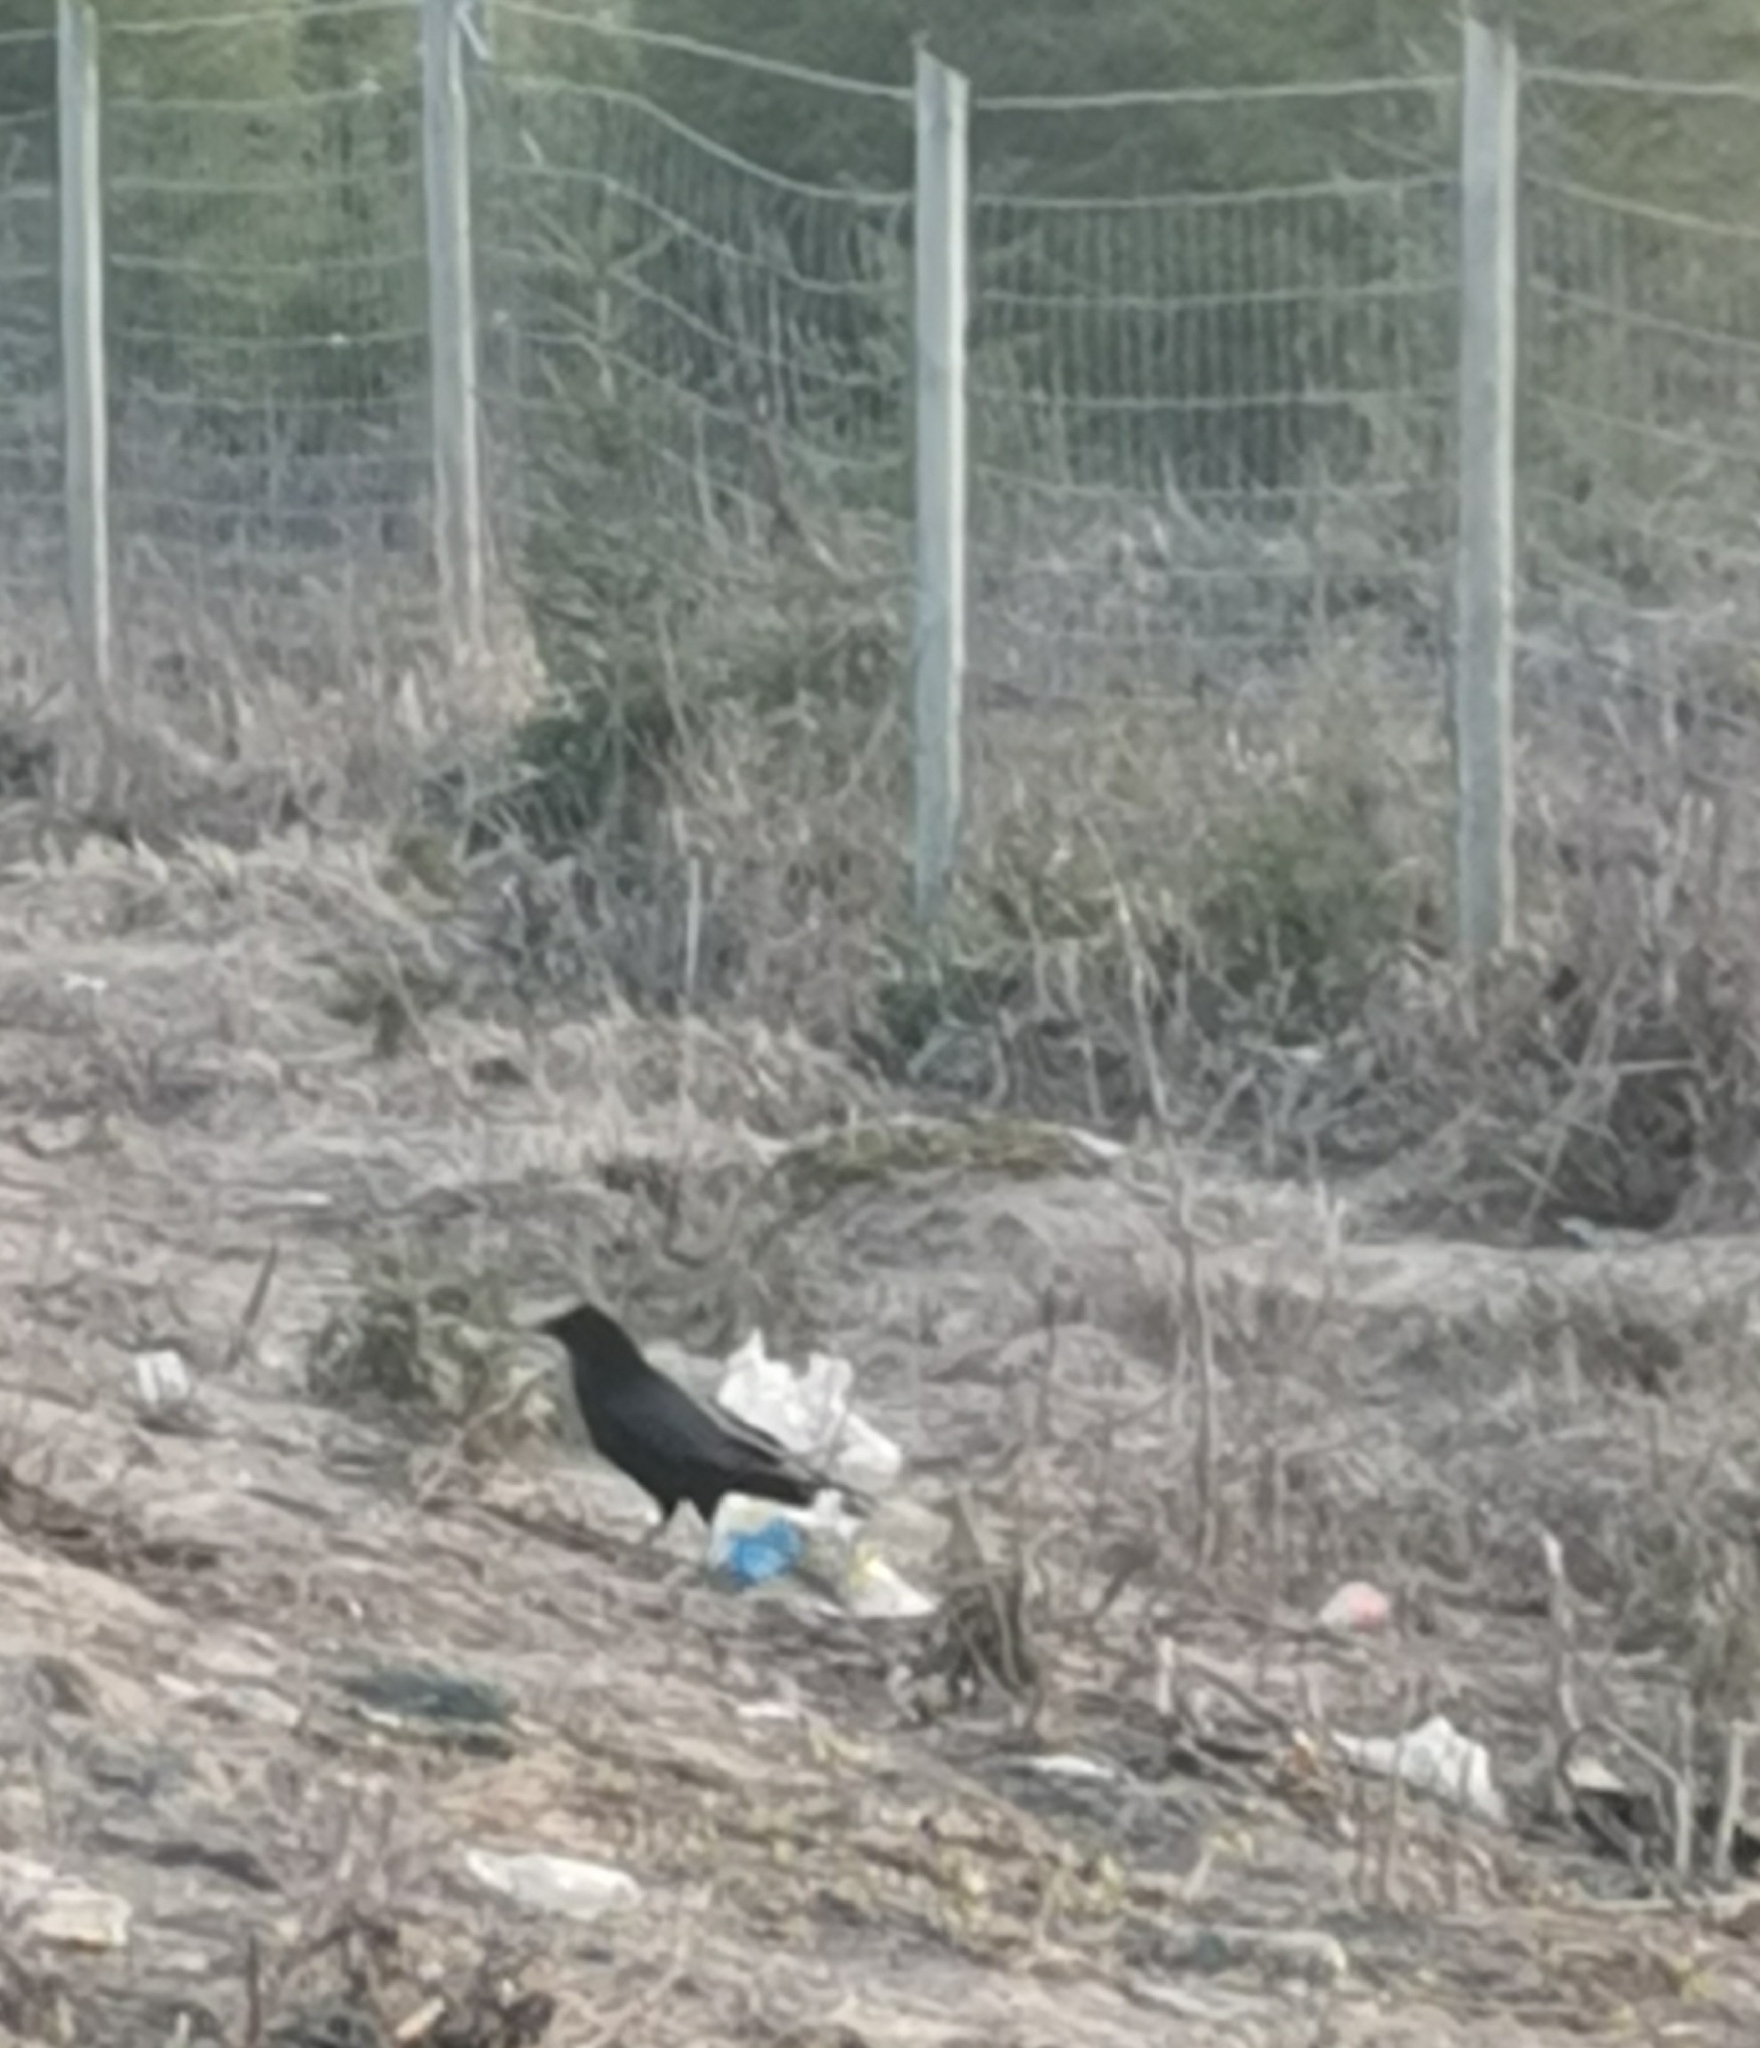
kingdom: Animalia
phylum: Chordata
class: Aves
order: Passeriformes
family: Corvidae
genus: Corvus
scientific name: Corvus corax
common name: Common raven
